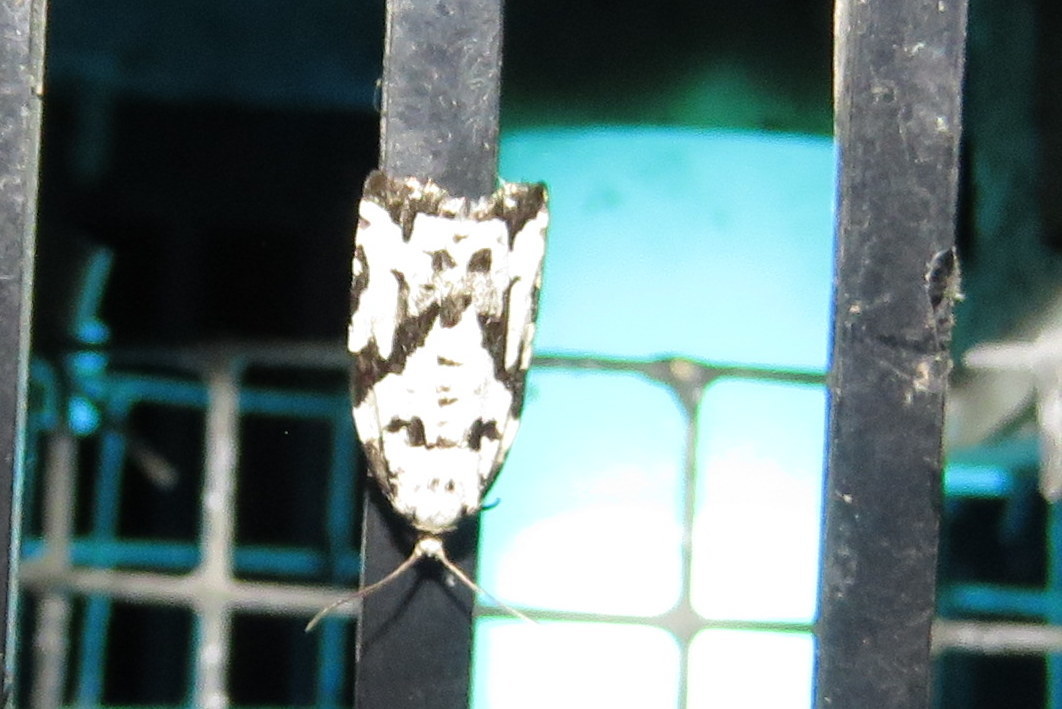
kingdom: Animalia
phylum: Arthropoda
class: Insecta
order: Lepidoptera
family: Tortricidae
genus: Archips
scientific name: Archips dissitana
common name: Boldly-marked archips moth
